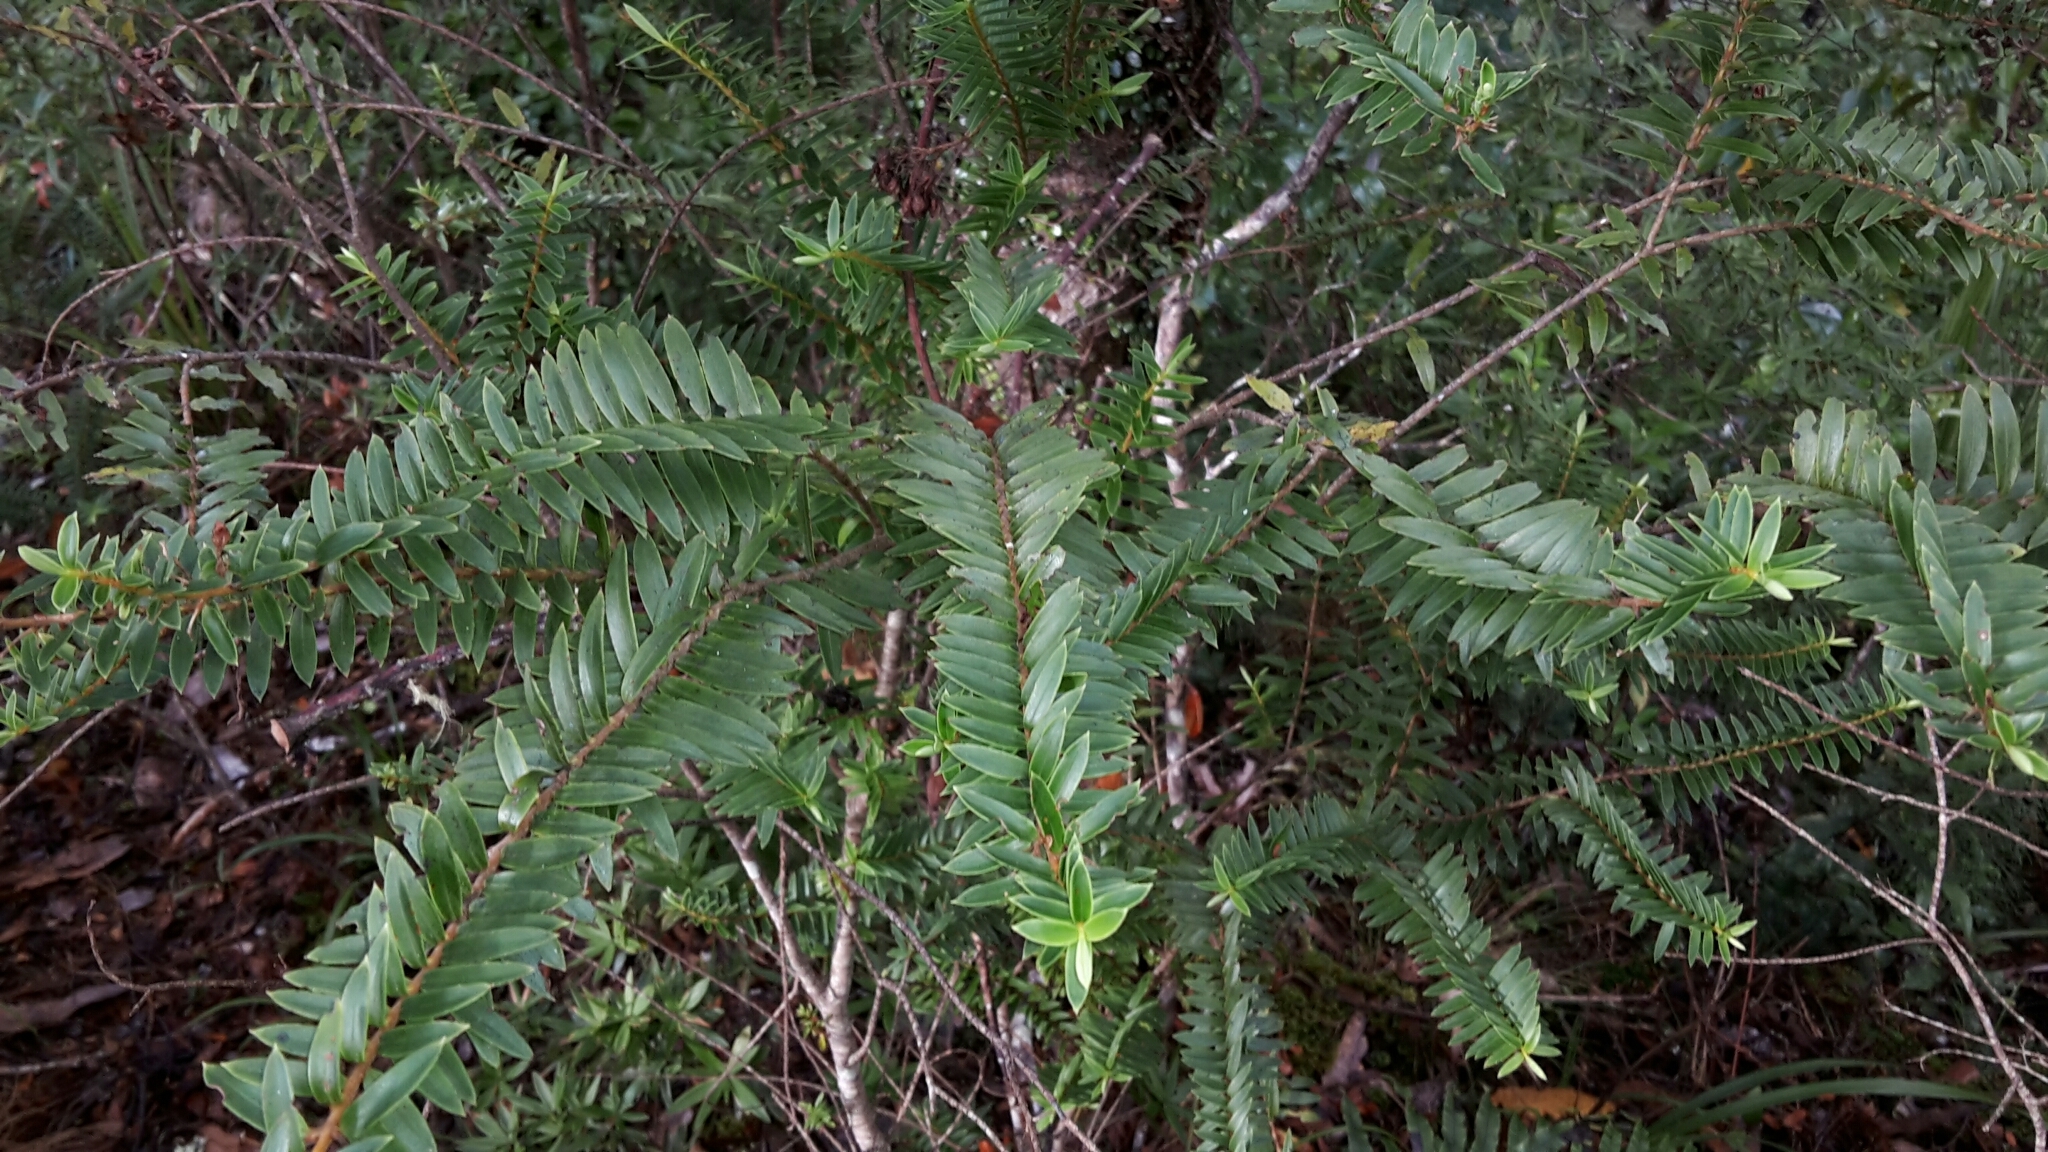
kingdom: Plantae
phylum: Tracheophyta
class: Magnoliopsida
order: Lamiales
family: Plantaginaceae
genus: Veronica
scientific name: Veronica diosmifolia
